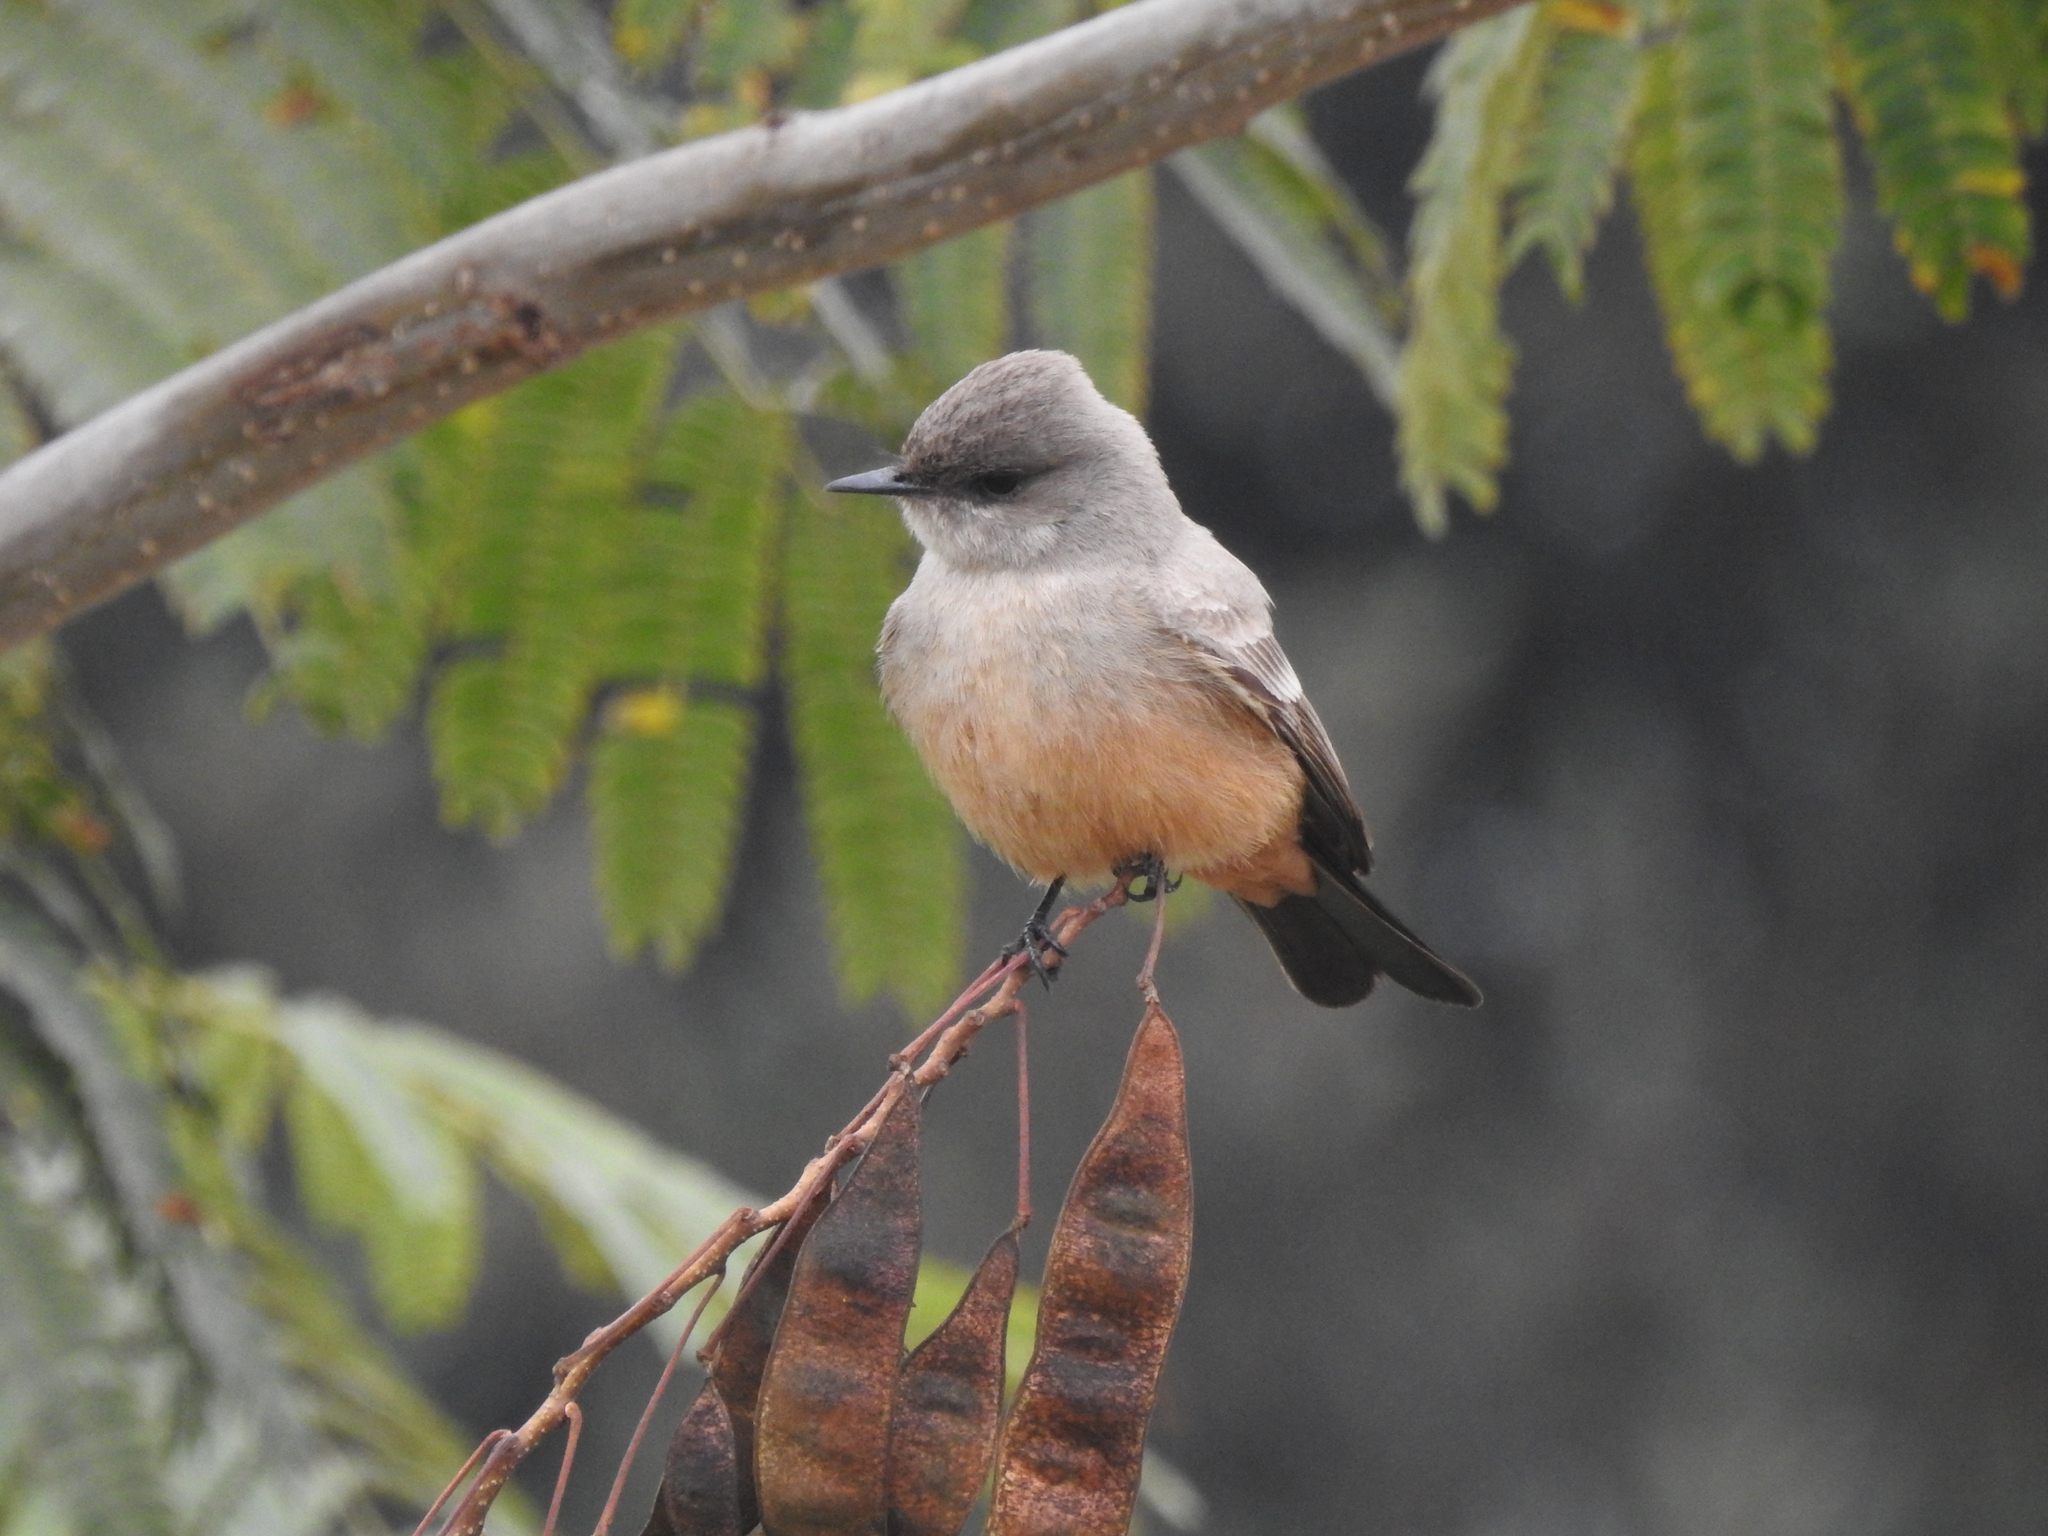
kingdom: Animalia
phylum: Chordata
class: Aves
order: Passeriformes
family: Tyrannidae
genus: Sayornis
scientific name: Sayornis saya
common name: Say's phoebe
